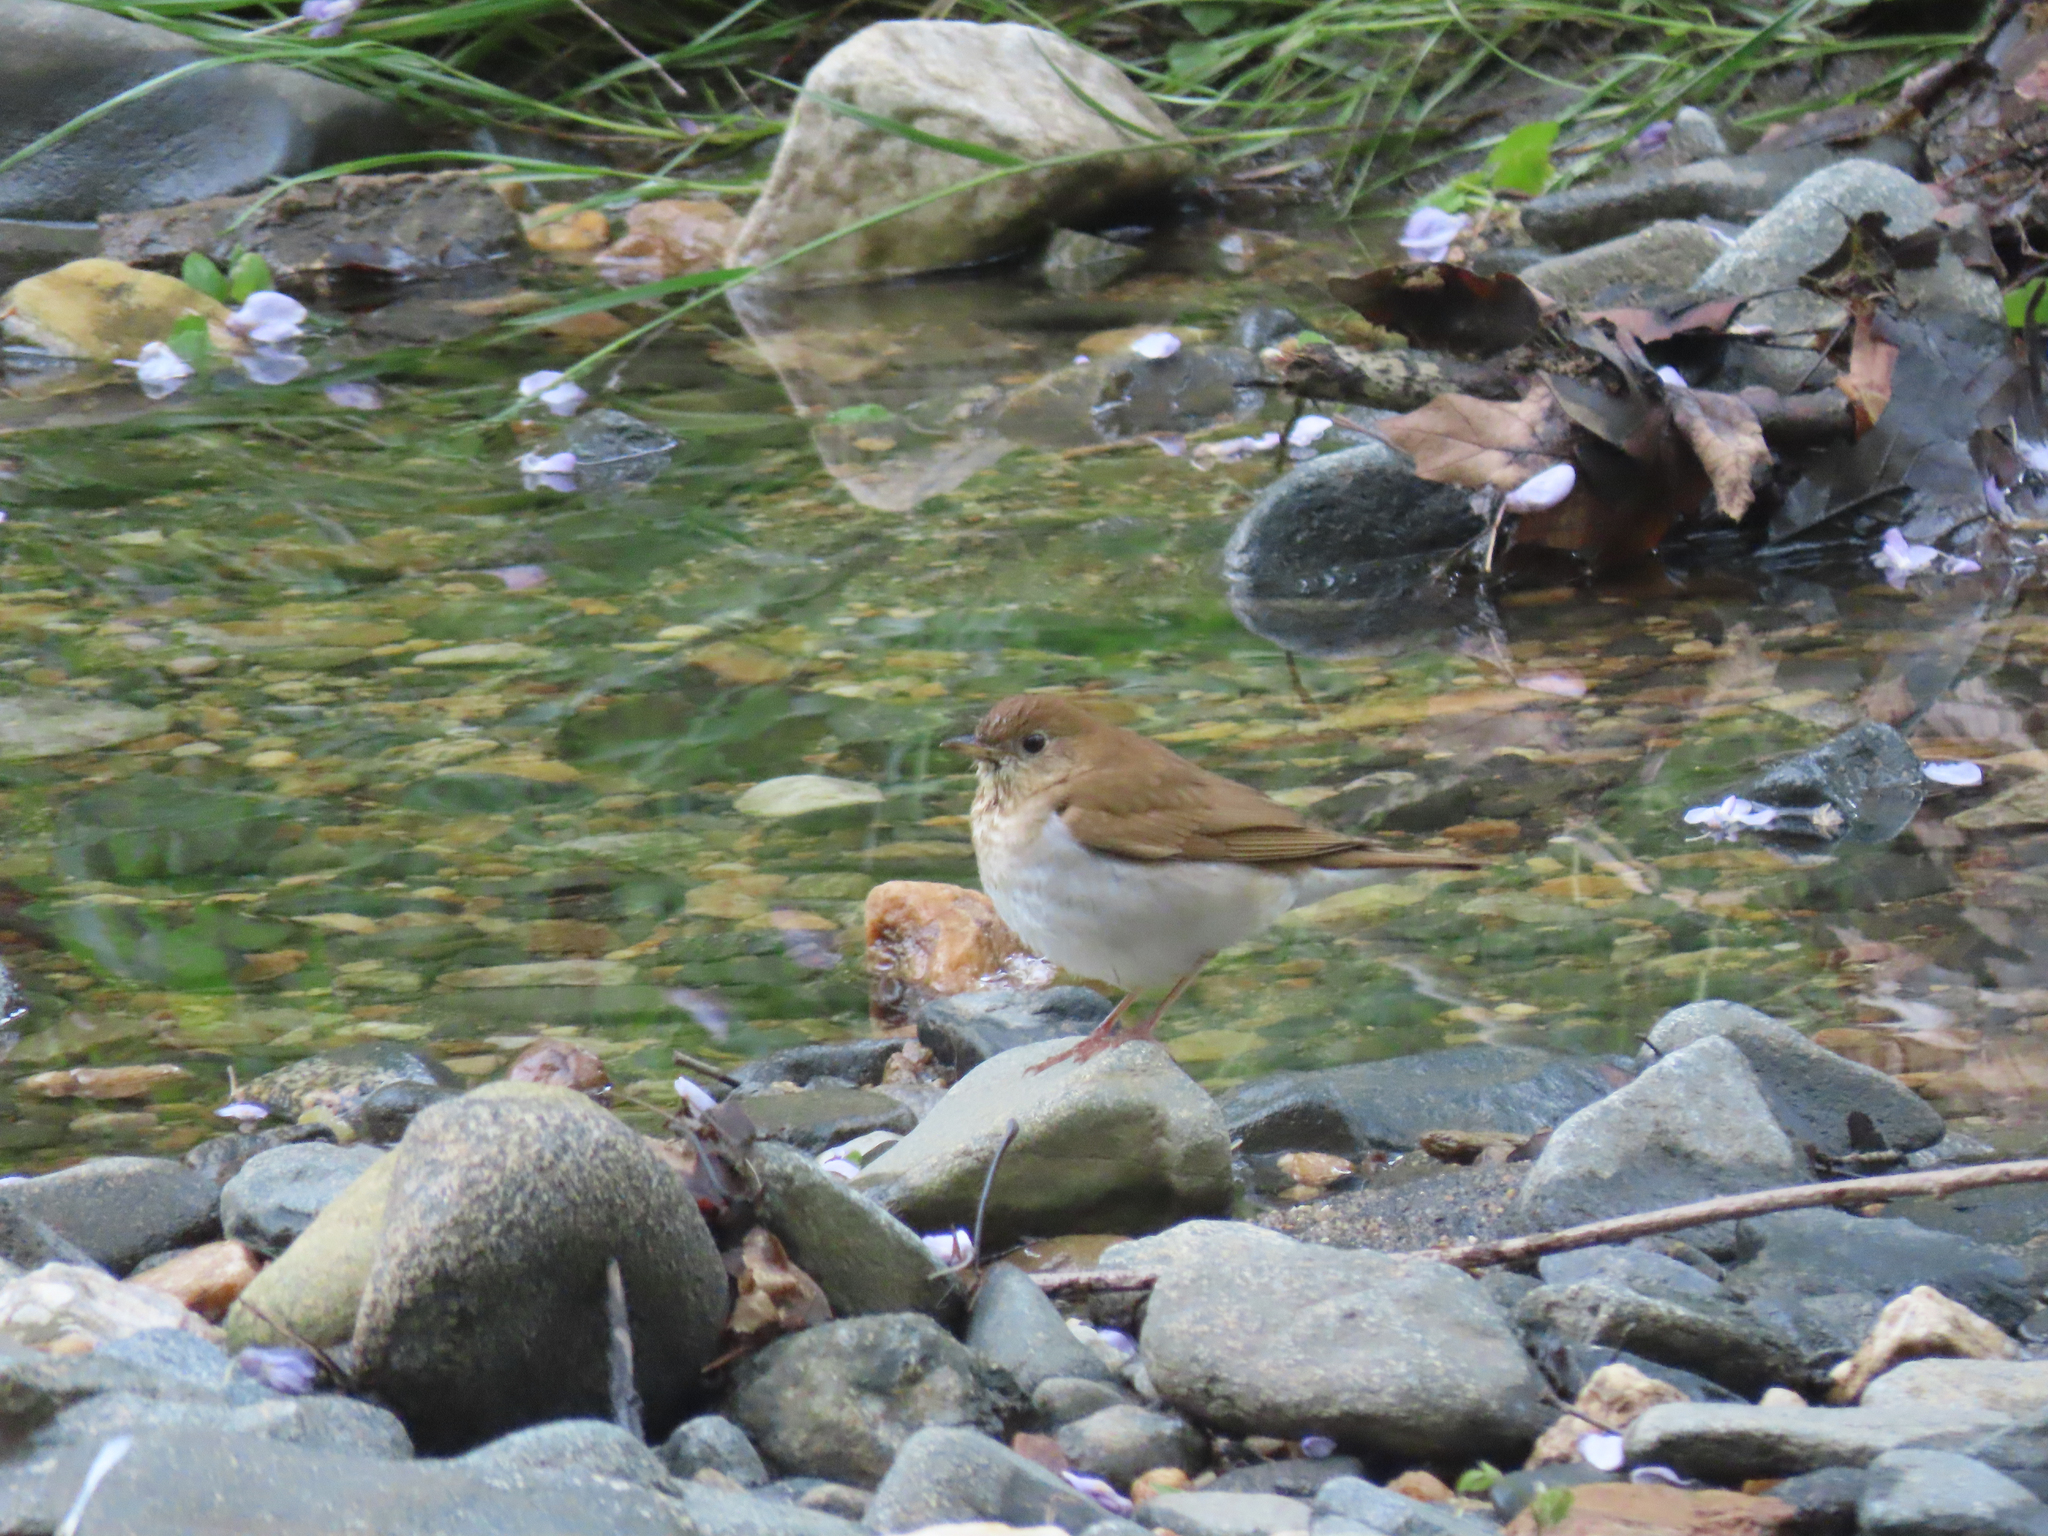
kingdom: Animalia
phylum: Chordata
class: Aves
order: Passeriformes
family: Turdidae
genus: Catharus
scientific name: Catharus fuscescens
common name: Veery
